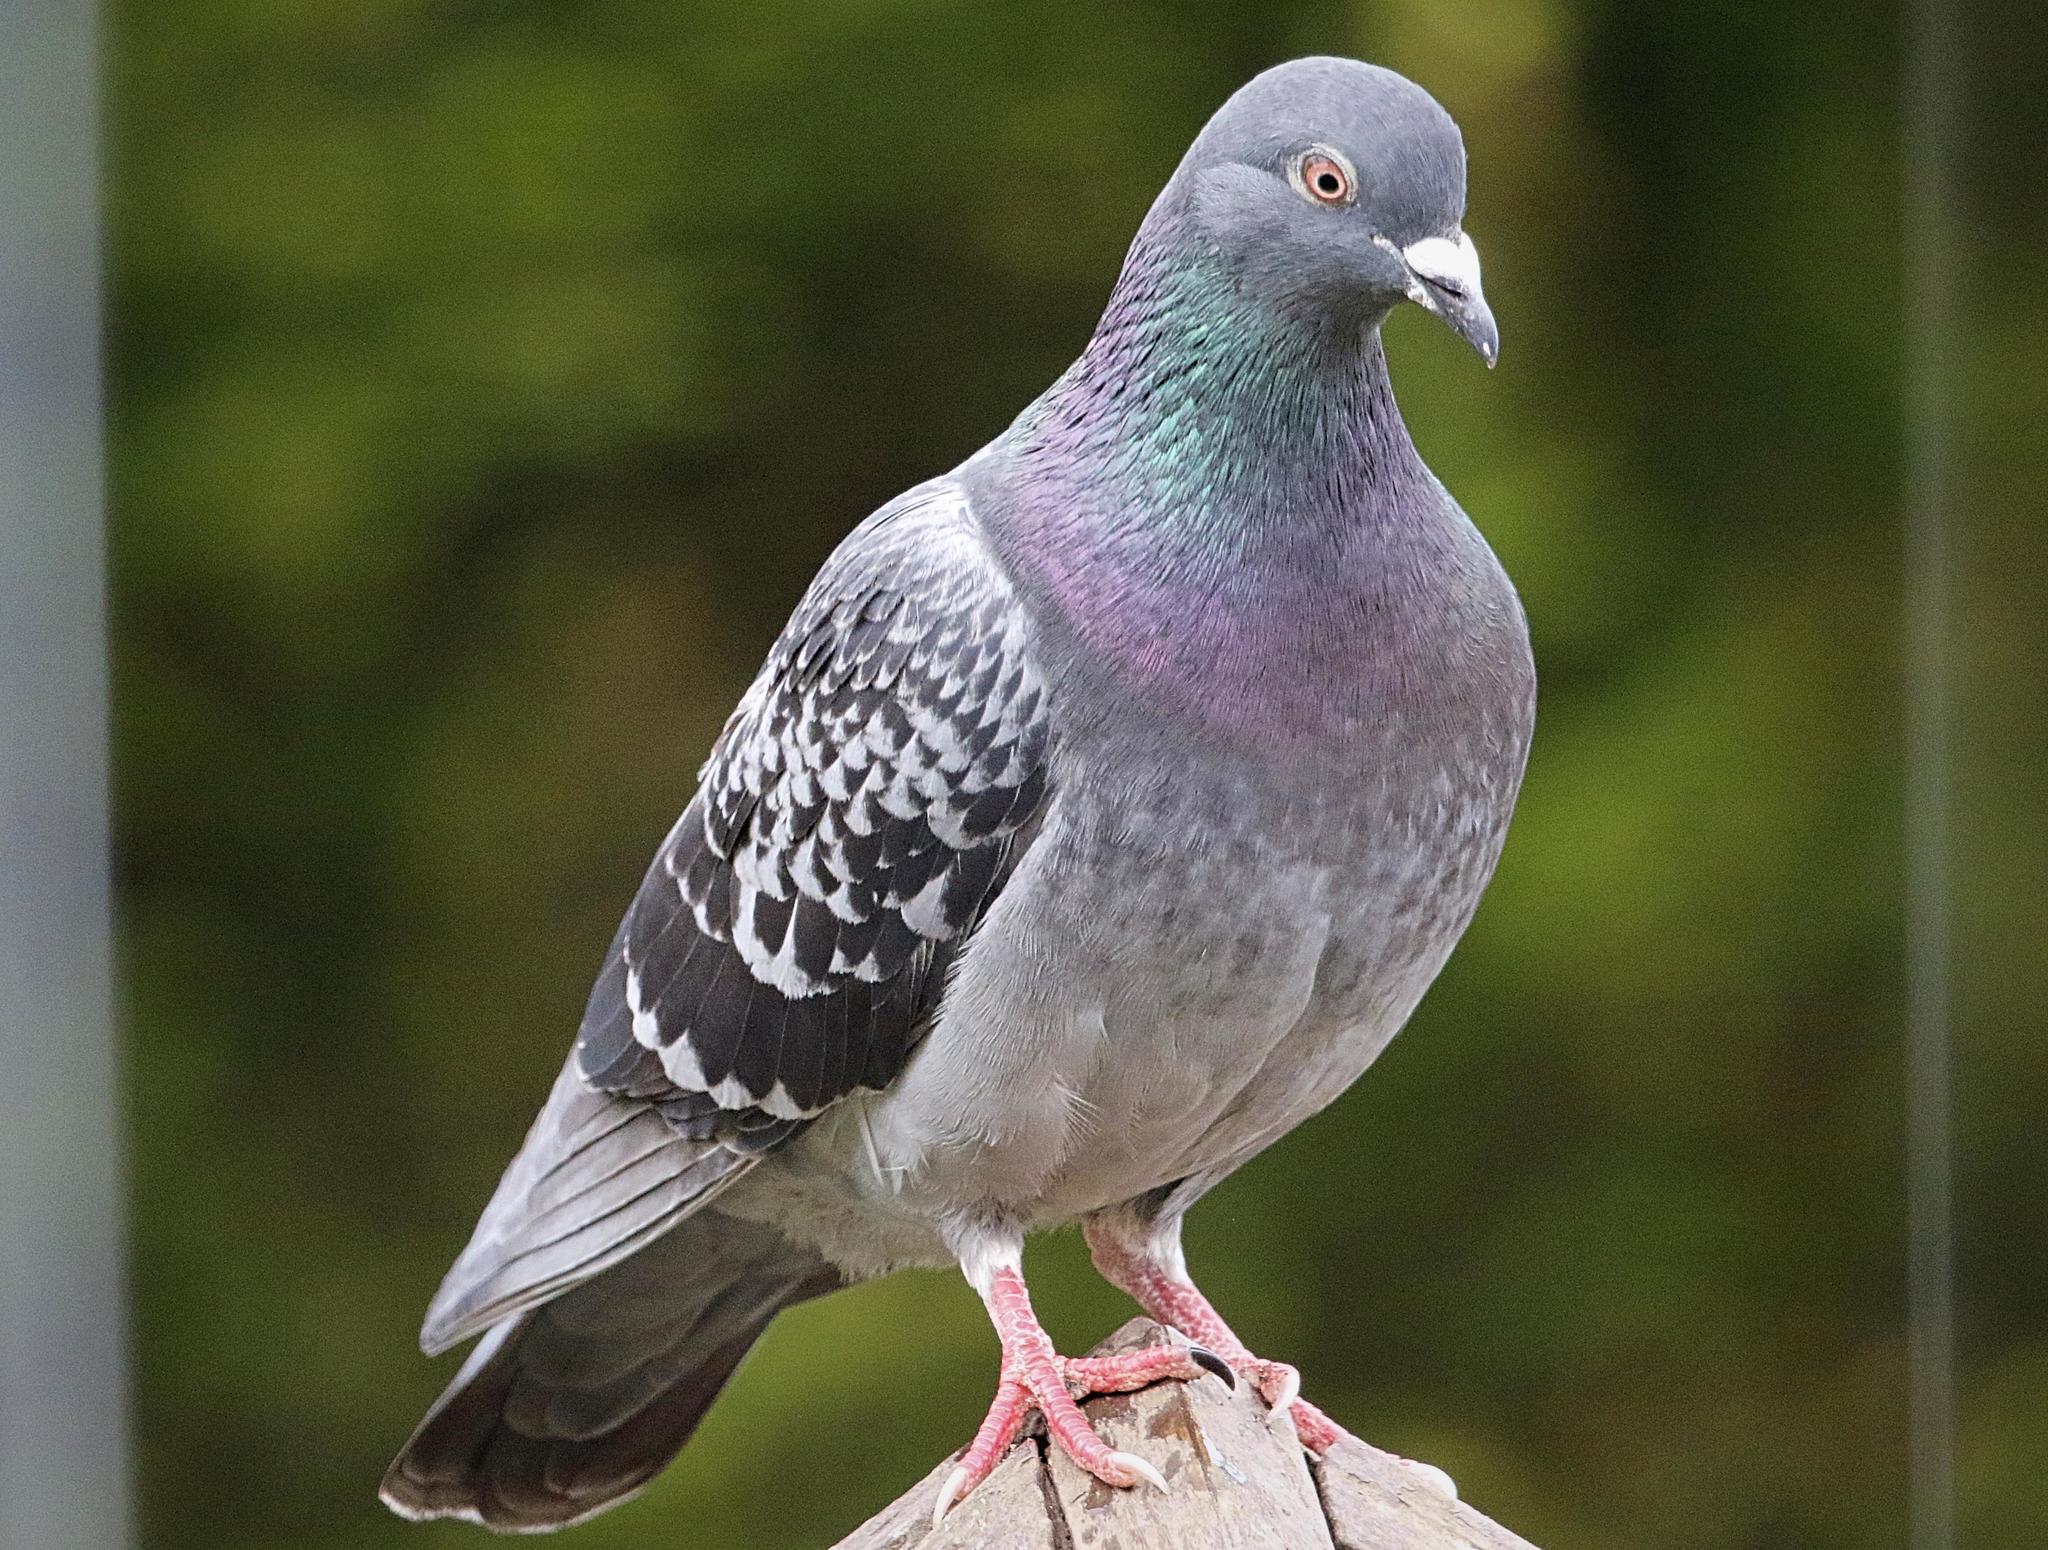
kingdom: Animalia
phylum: Chordata
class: Aves
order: Columbiformes
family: Columbidae
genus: Columba
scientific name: Columba livia
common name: Rock pigeon
